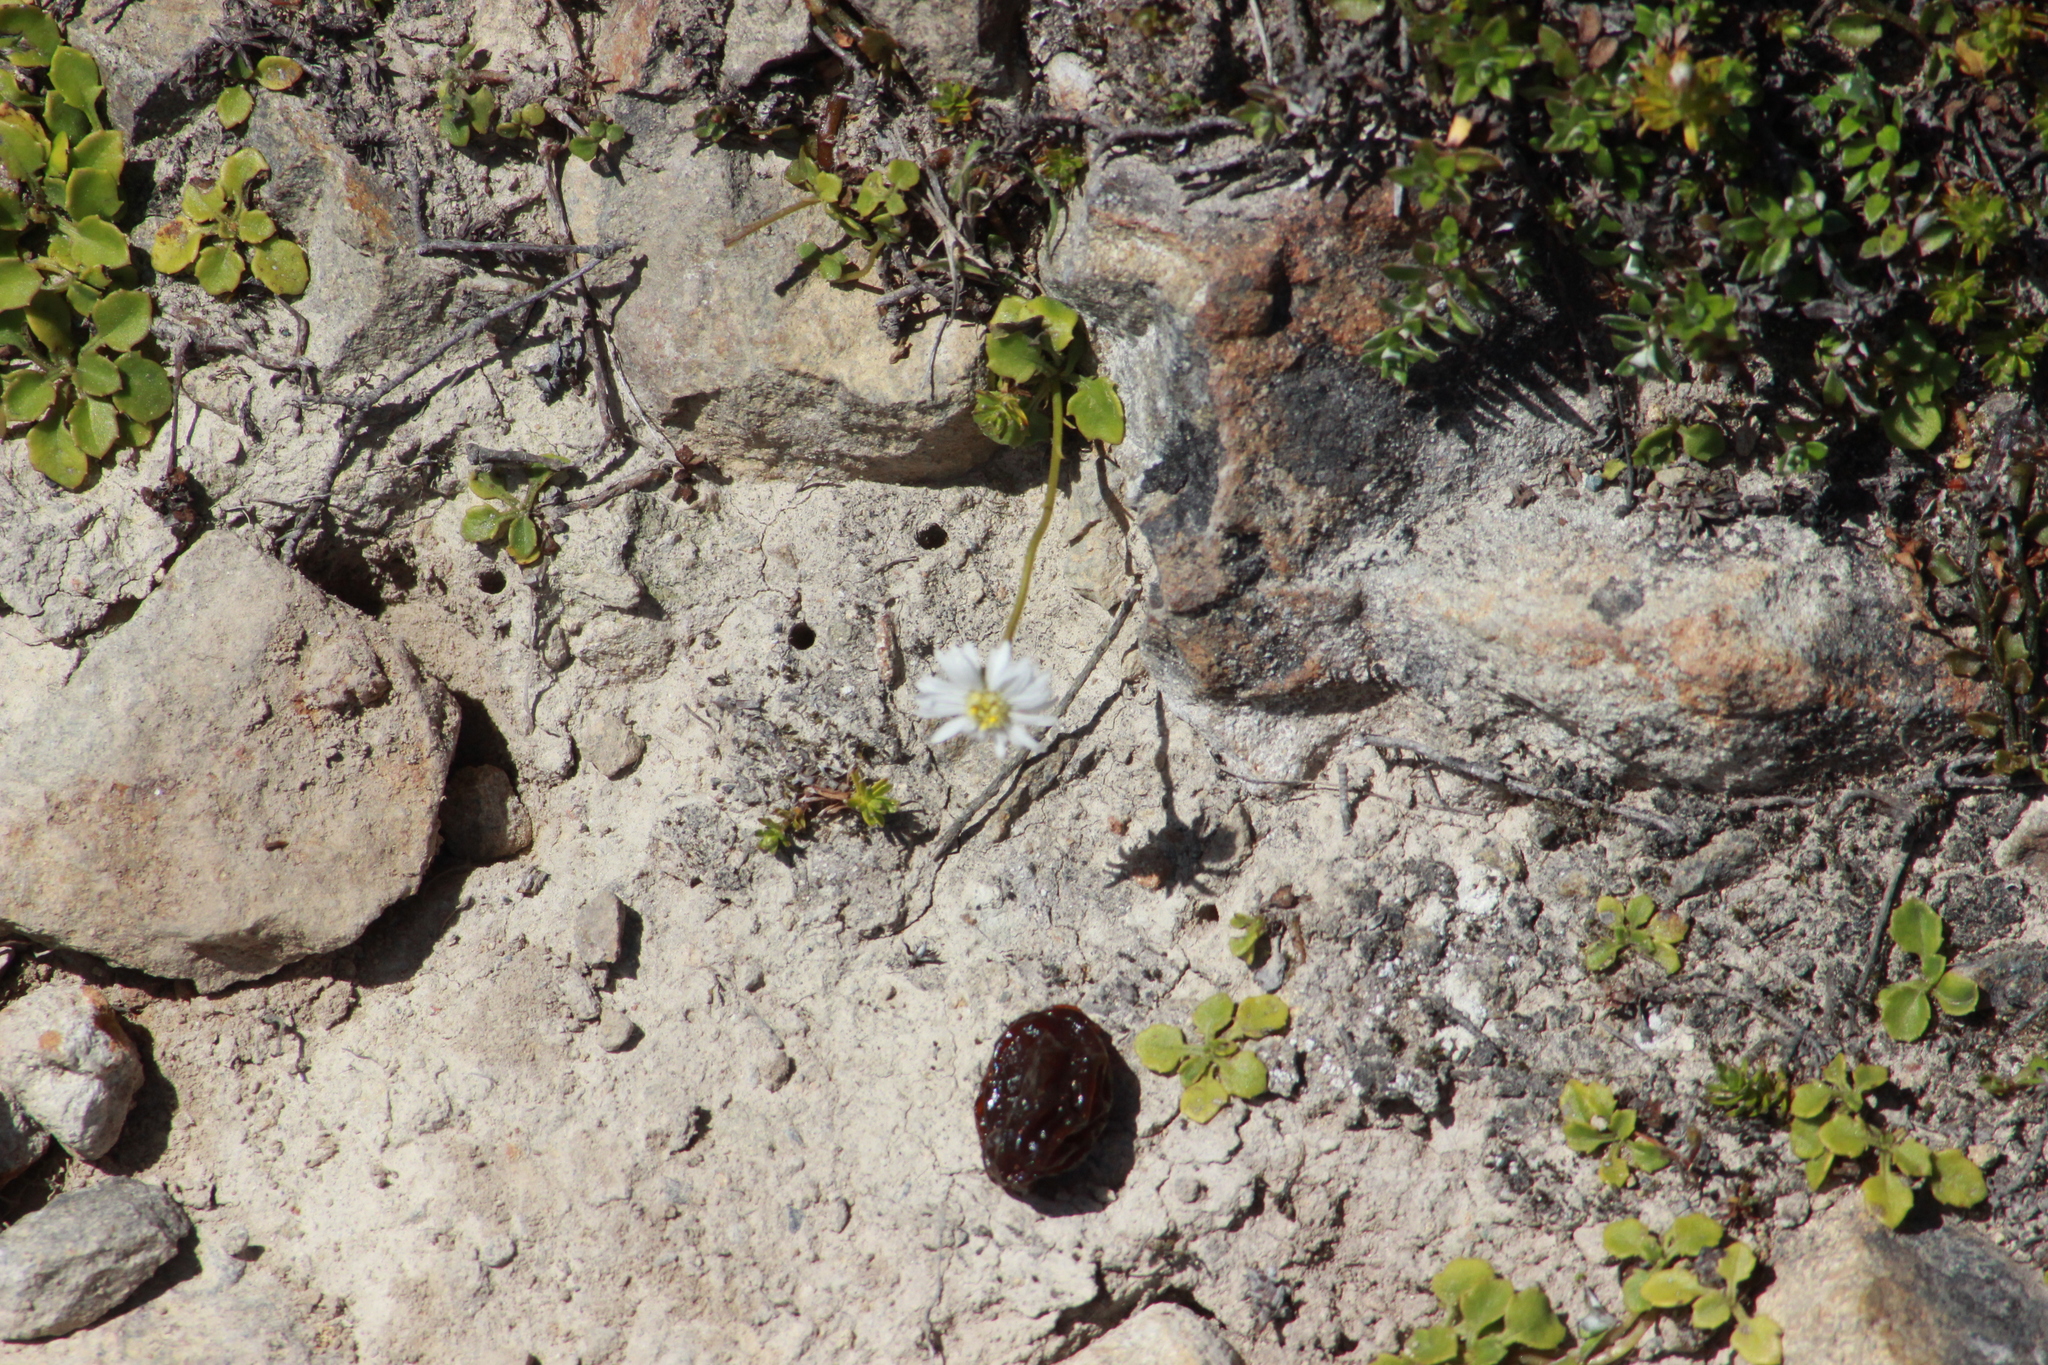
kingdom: Plantae
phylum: Tracheophyta
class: Magnoliopsida
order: Asterales
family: Asteraceae
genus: Lagenophora
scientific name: Lagenophora pumila
